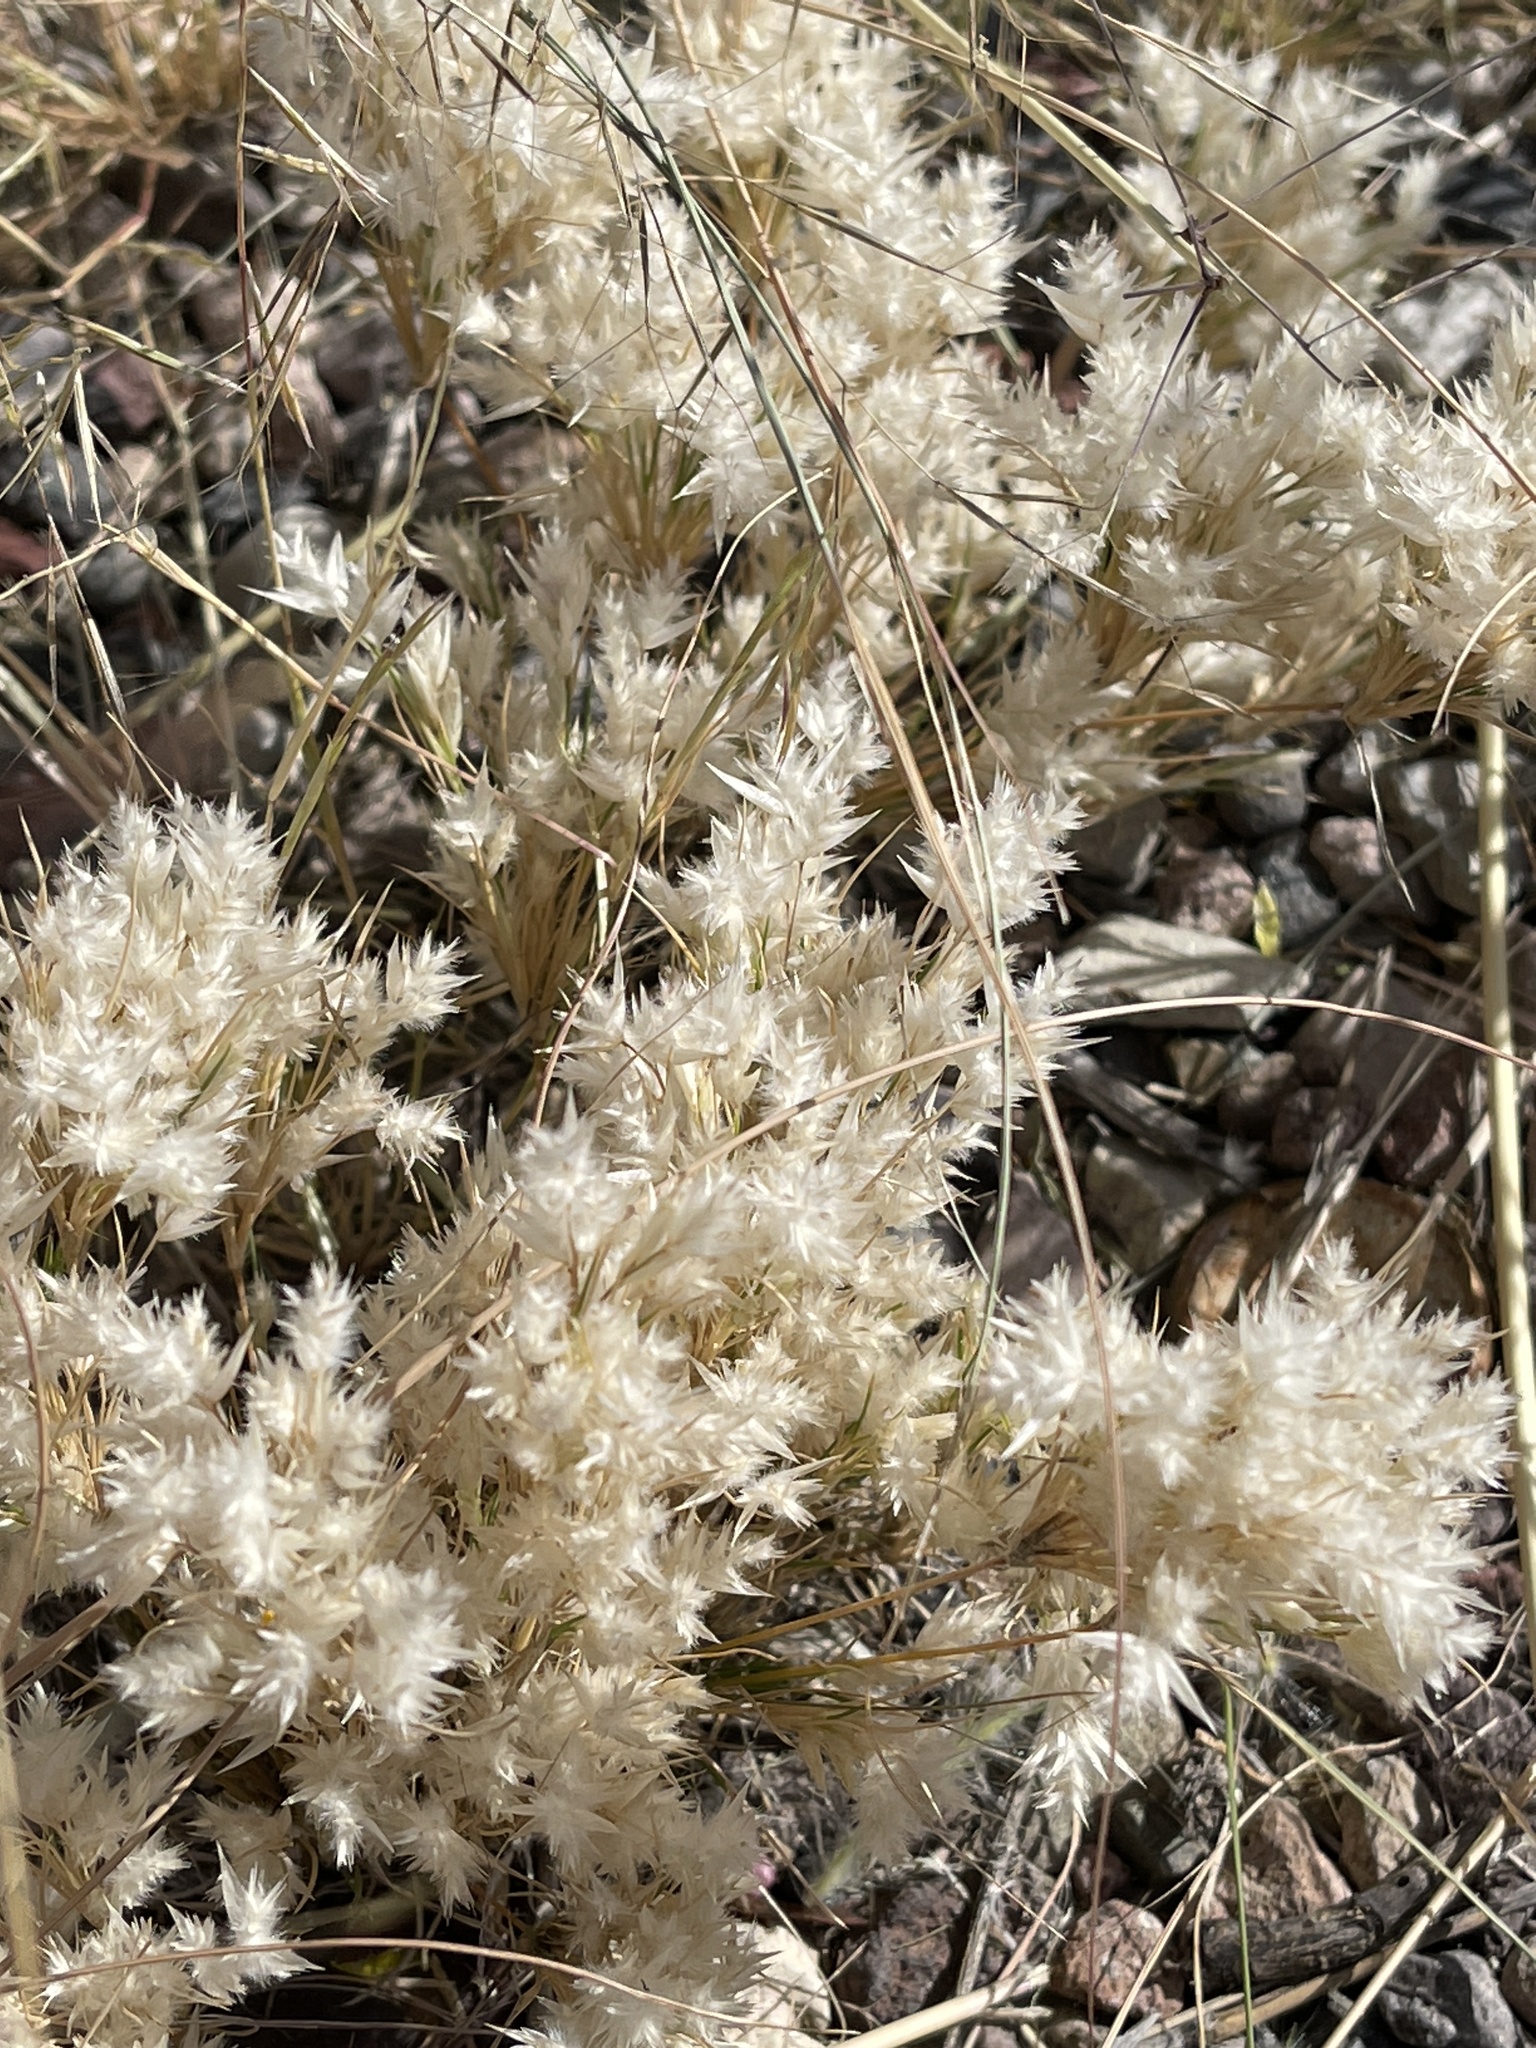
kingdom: Plantae
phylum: Tracheophyta
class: Liliopsida
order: Poales
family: Poaceae
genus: Dasyochloa
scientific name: Dasyochloa pulchella
